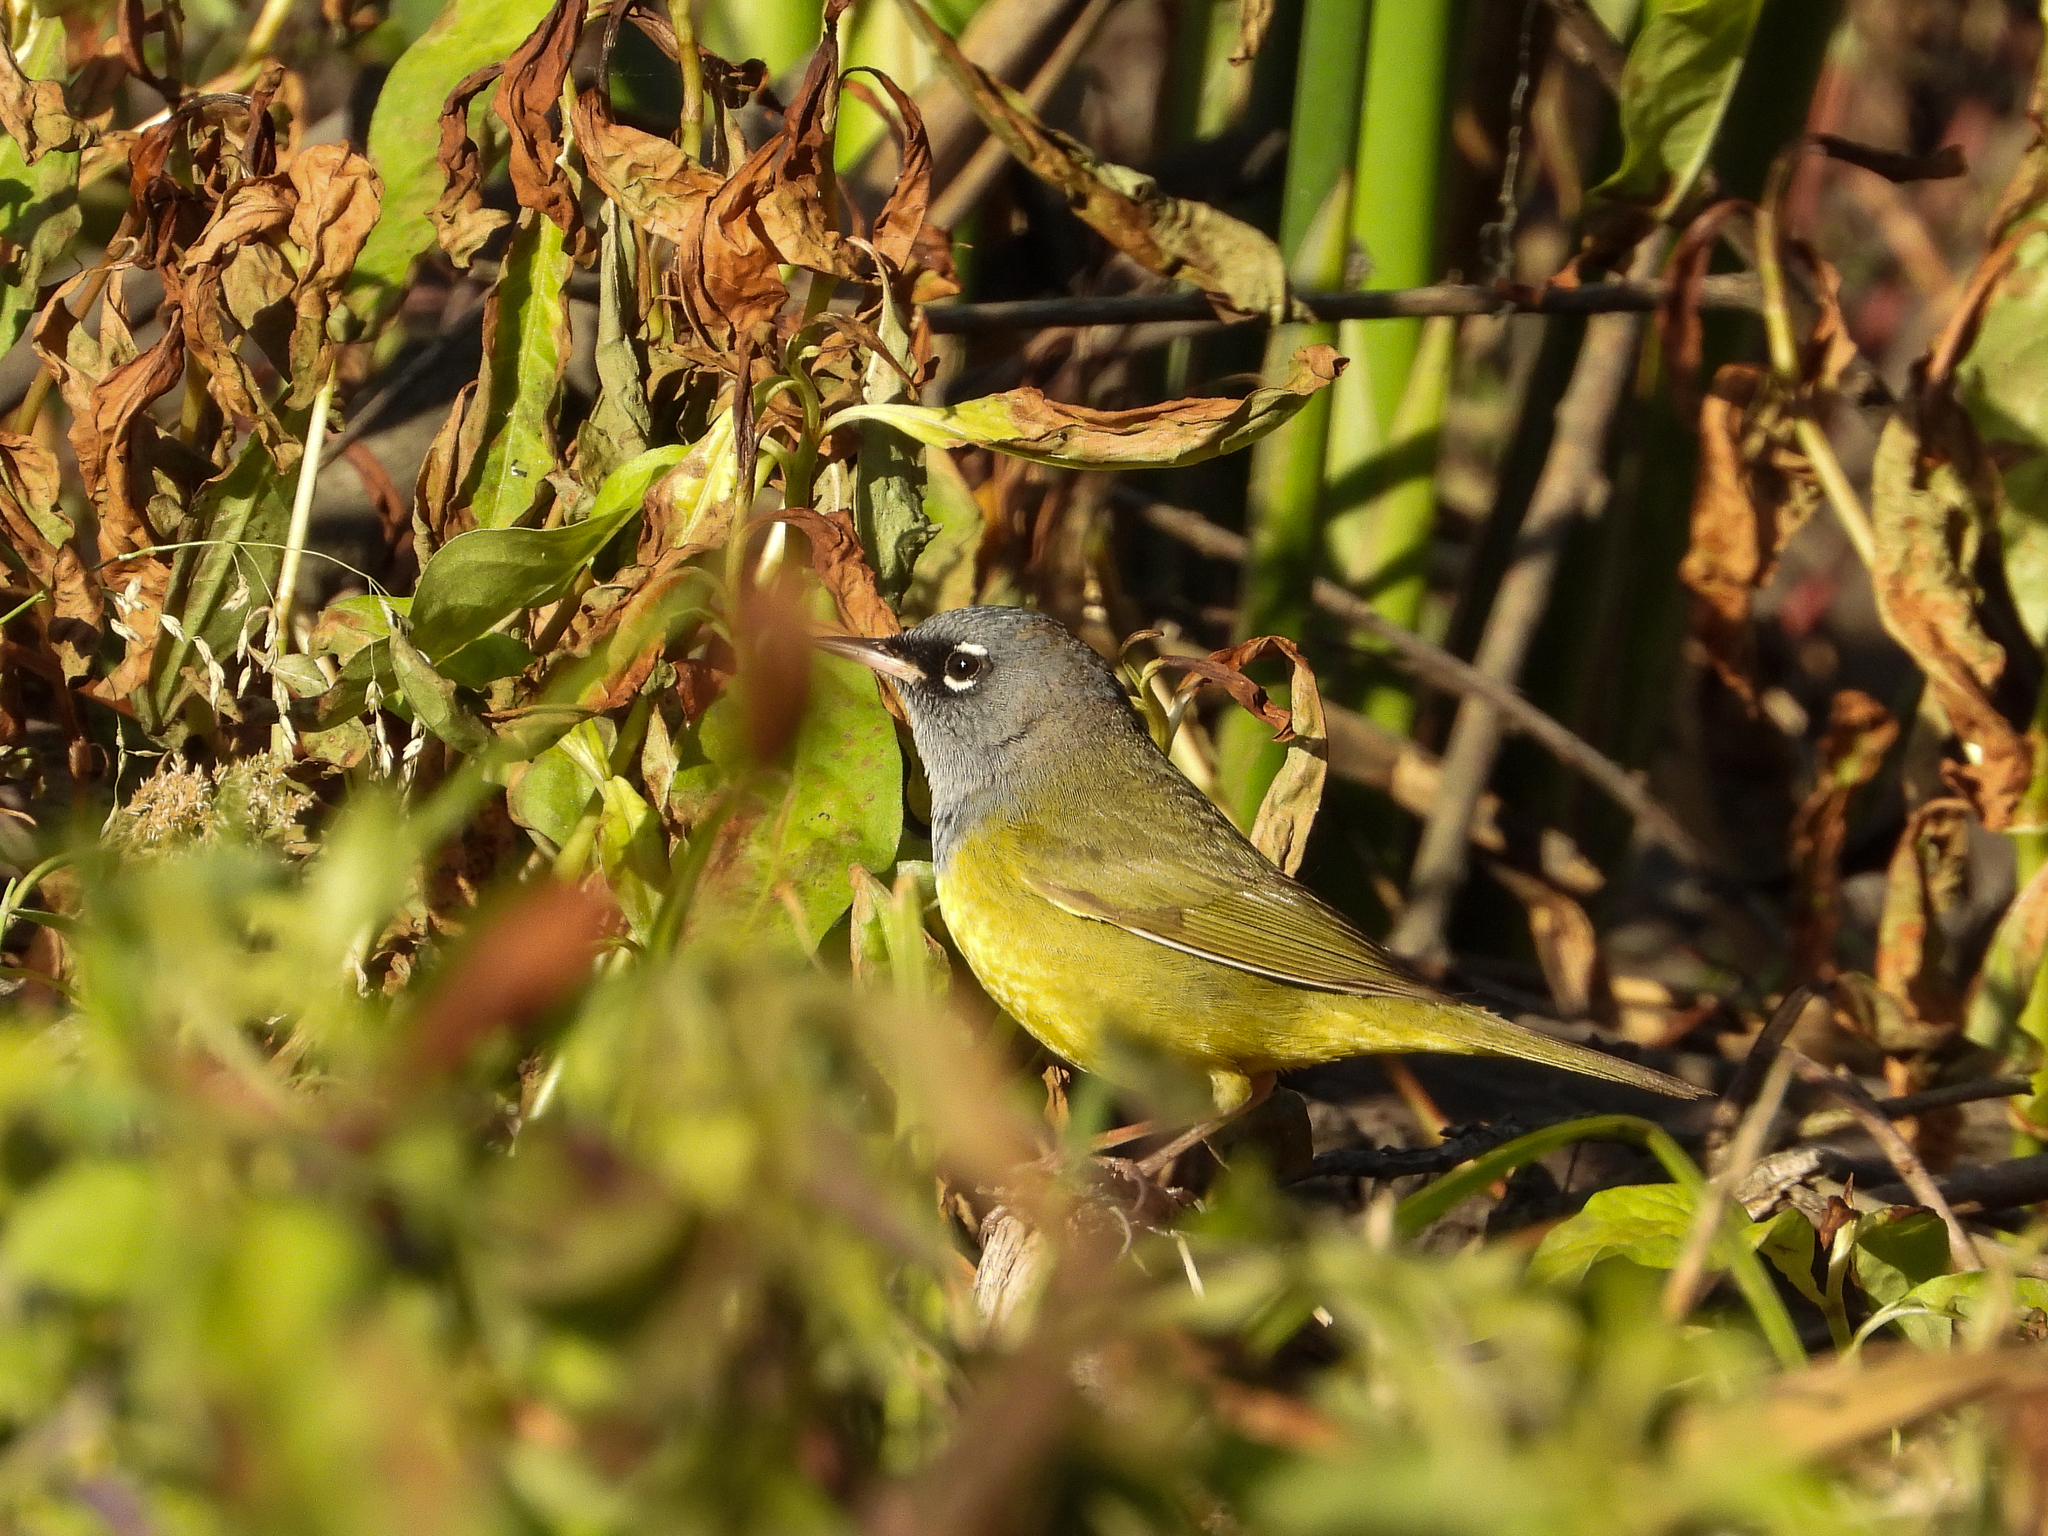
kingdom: Animalia
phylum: Chordata
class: Aves
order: Passeriformes
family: Parulidae
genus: Geothlypis
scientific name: Geothlypis tolmiei
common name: Macgillivray's warbler
